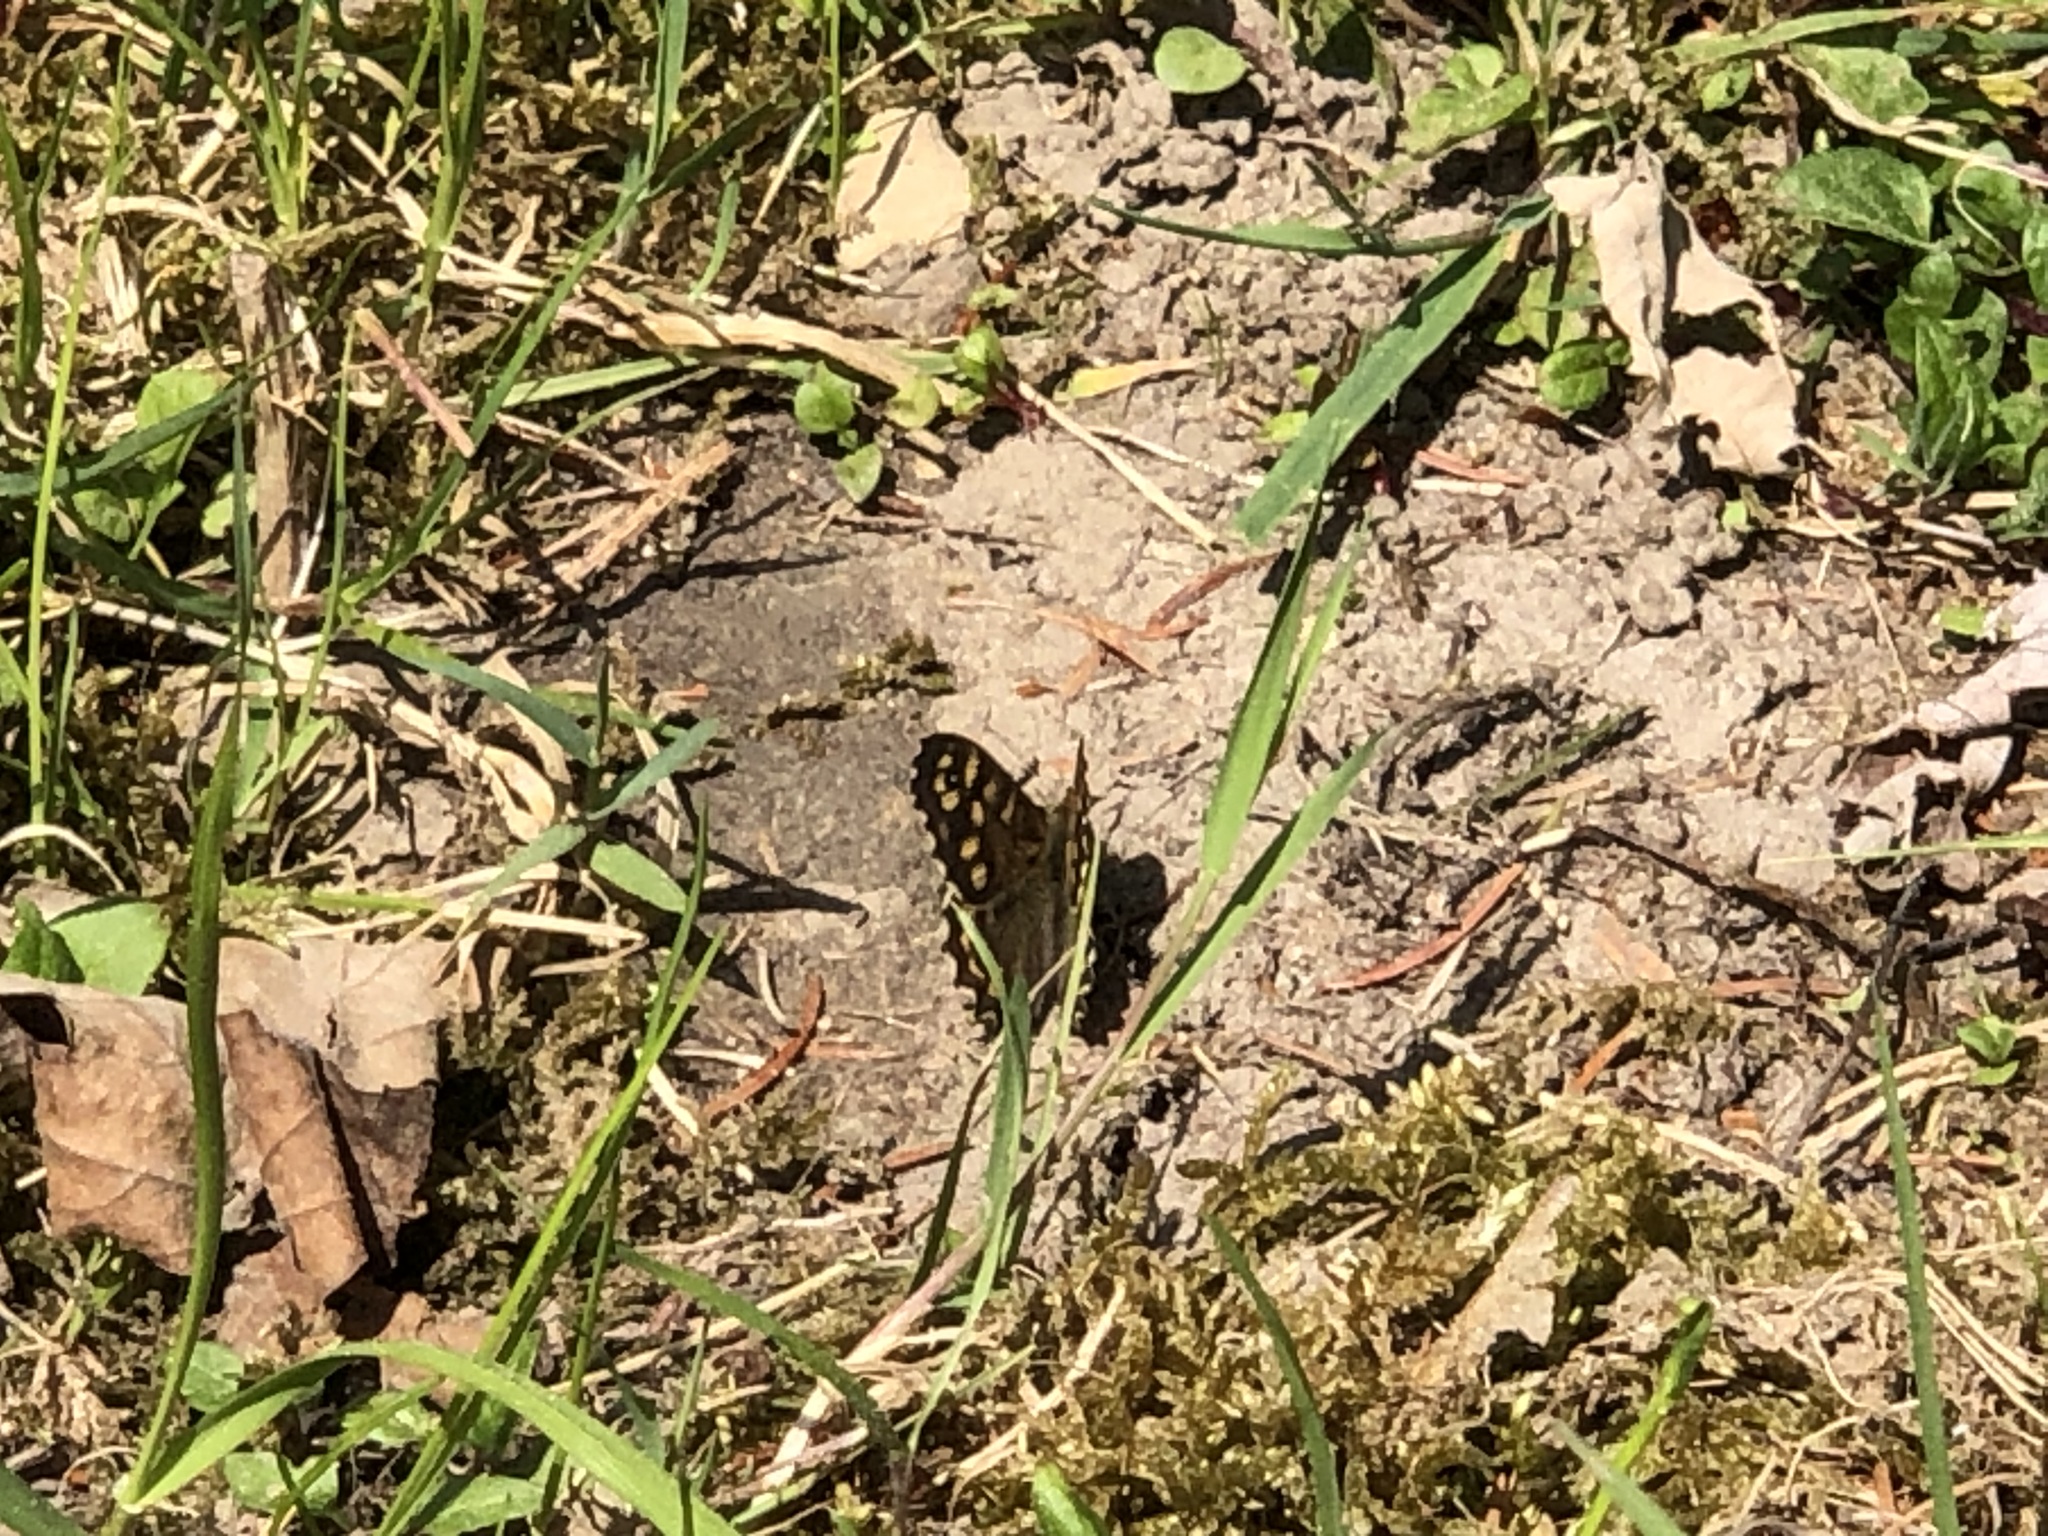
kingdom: Animalia
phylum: Arthropoda
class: Insecta
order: Lepidoptera
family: Nymphalidae
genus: Pararge
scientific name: Pararge aegeria
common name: Speckled wood
